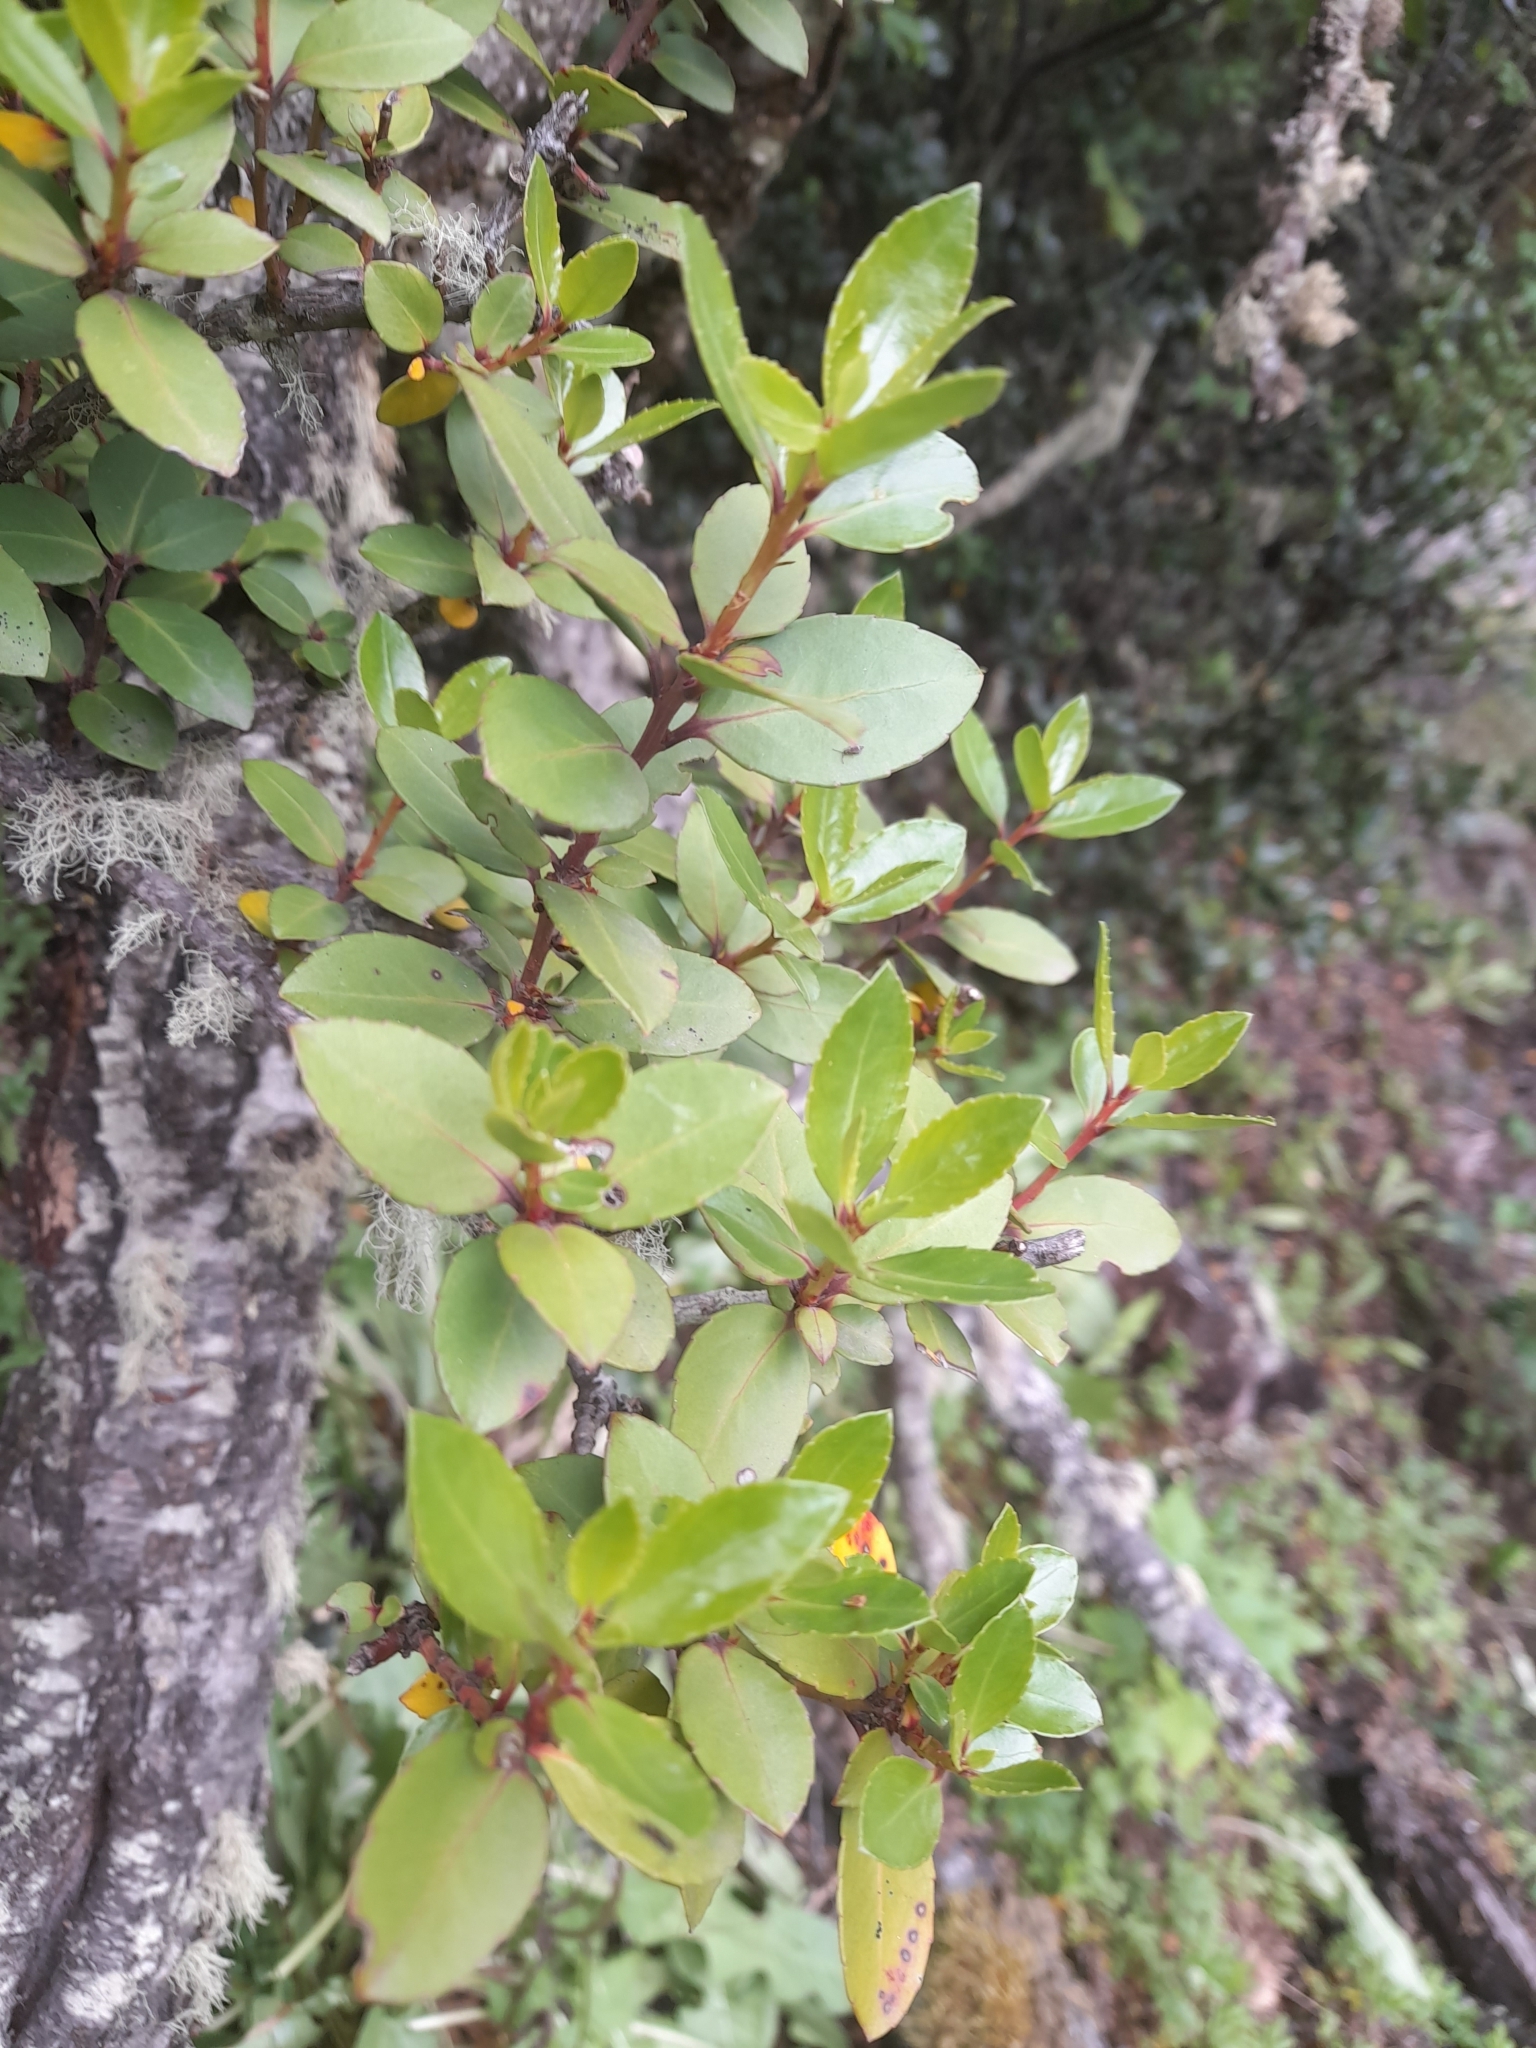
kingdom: Plantae
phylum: Tracheophyta
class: Magnoliopsida
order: Celastrales
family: Celastraceae
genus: Maytenus
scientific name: Maytenus magellanica
